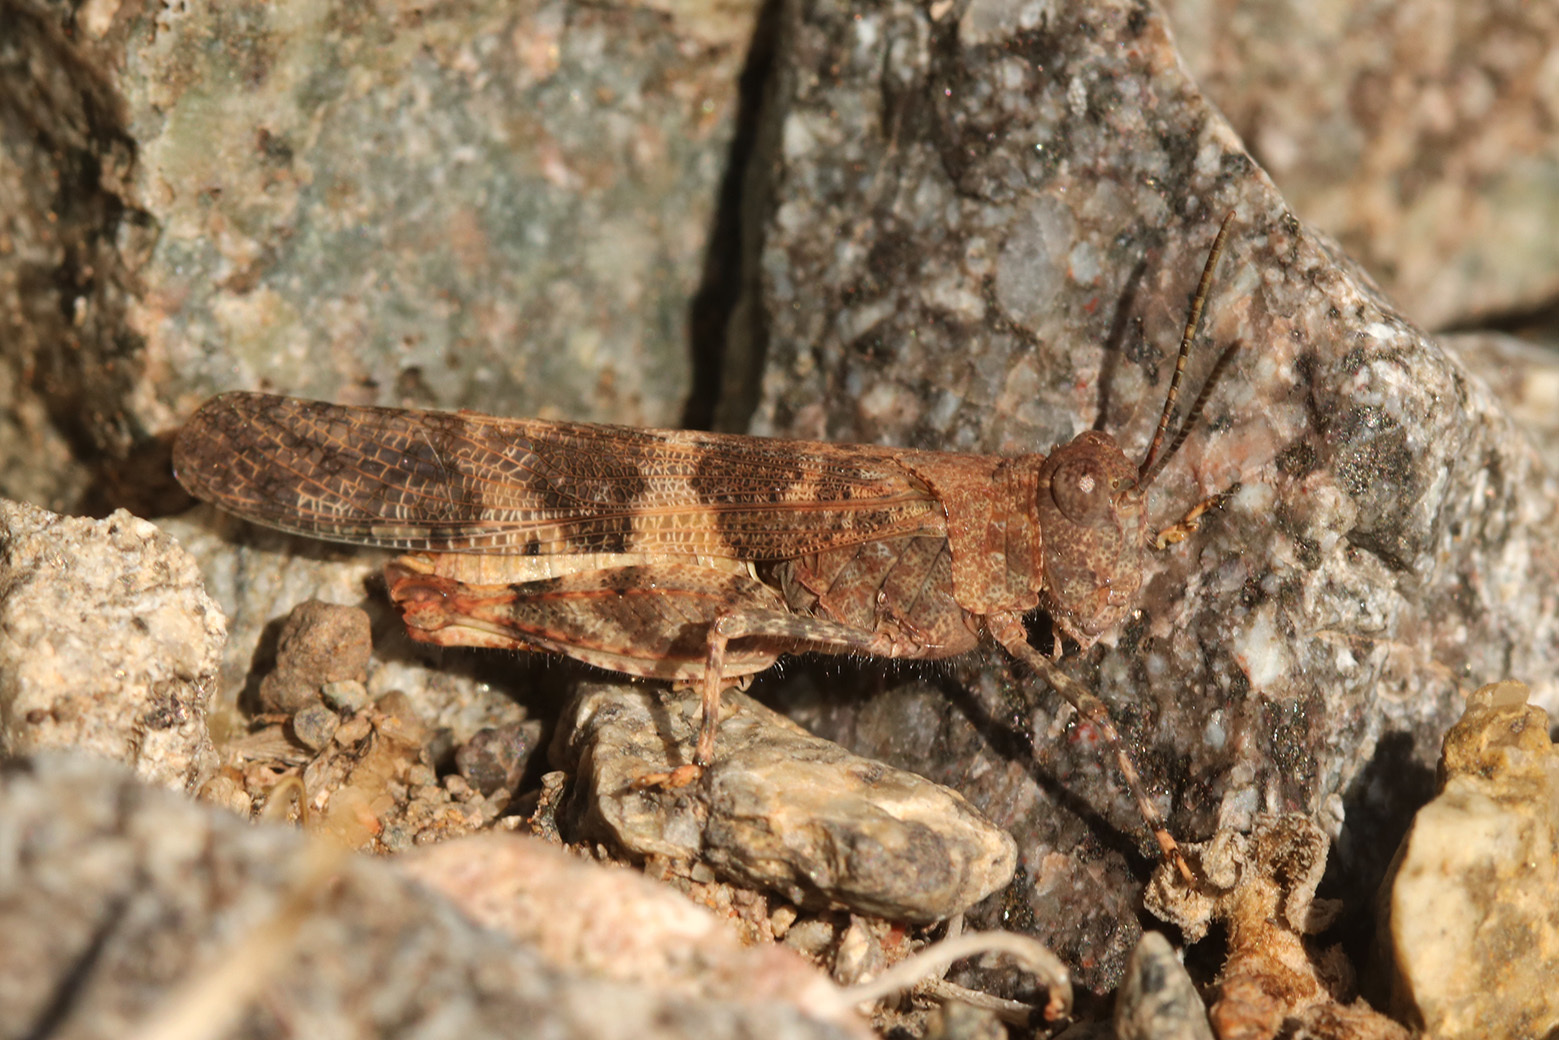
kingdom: Animalia
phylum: Arthropoda
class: Insecta
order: Orthoptera
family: Acrididae
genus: Trimerotropis
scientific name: Trimerotropis pallidipennis
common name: Pallid-winged grasshopper
